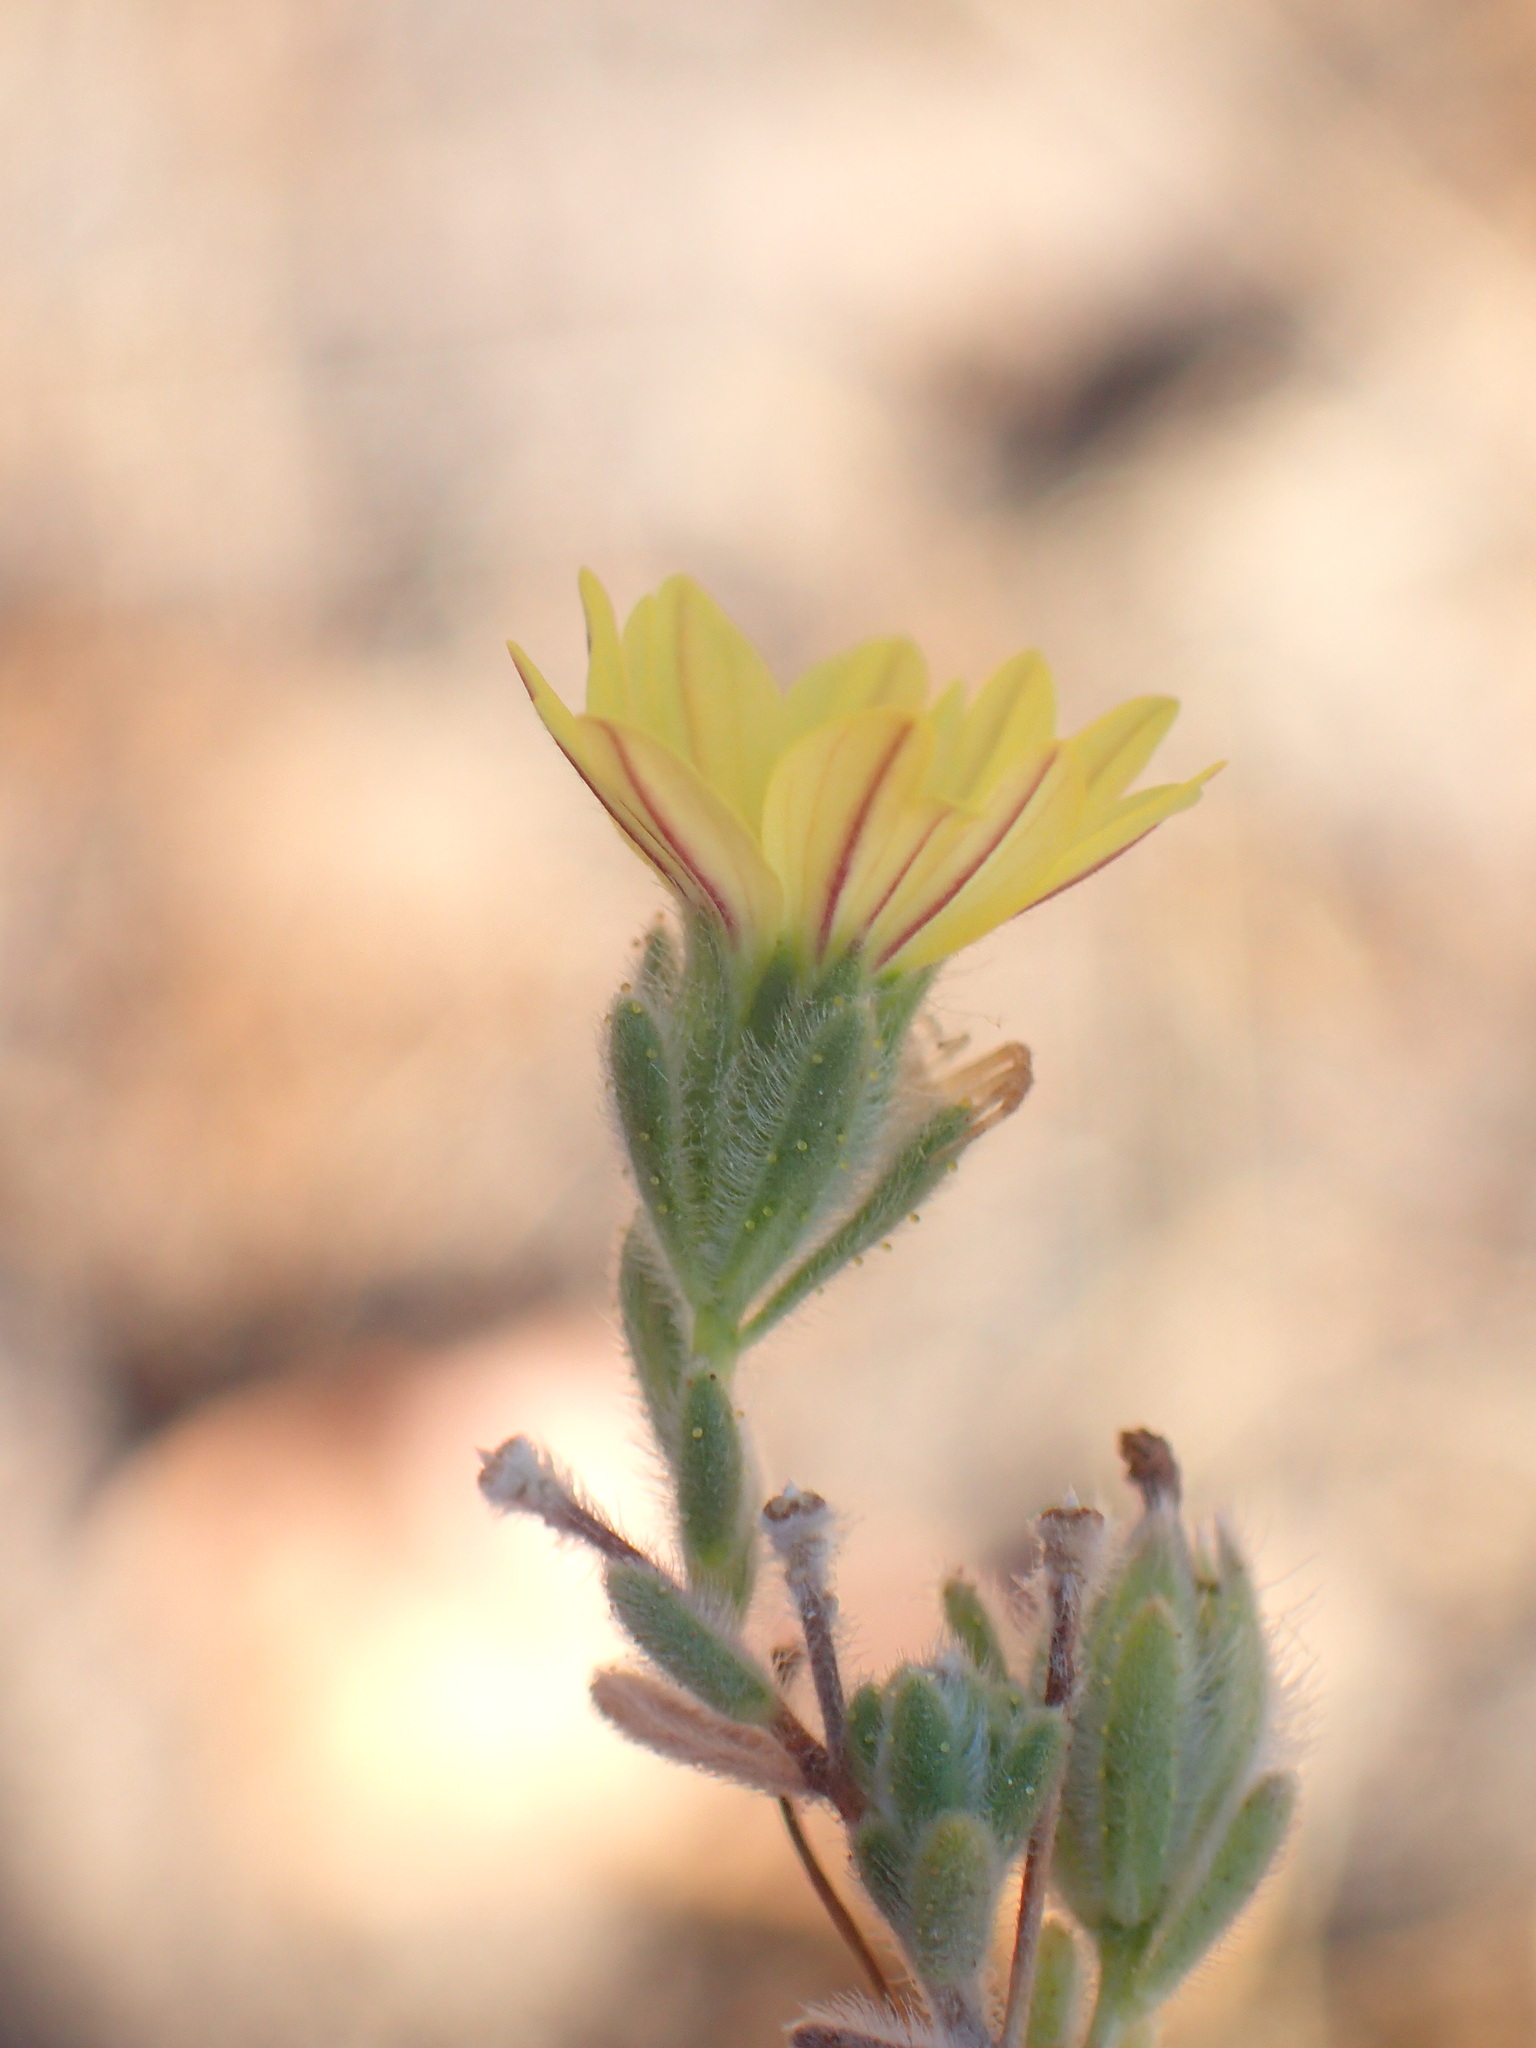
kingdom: Plantae
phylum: Tracheophyta
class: Magnoliopsida
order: Asterales
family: Asteraceae
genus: Lagophylla
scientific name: Lagophylla ramosissima
